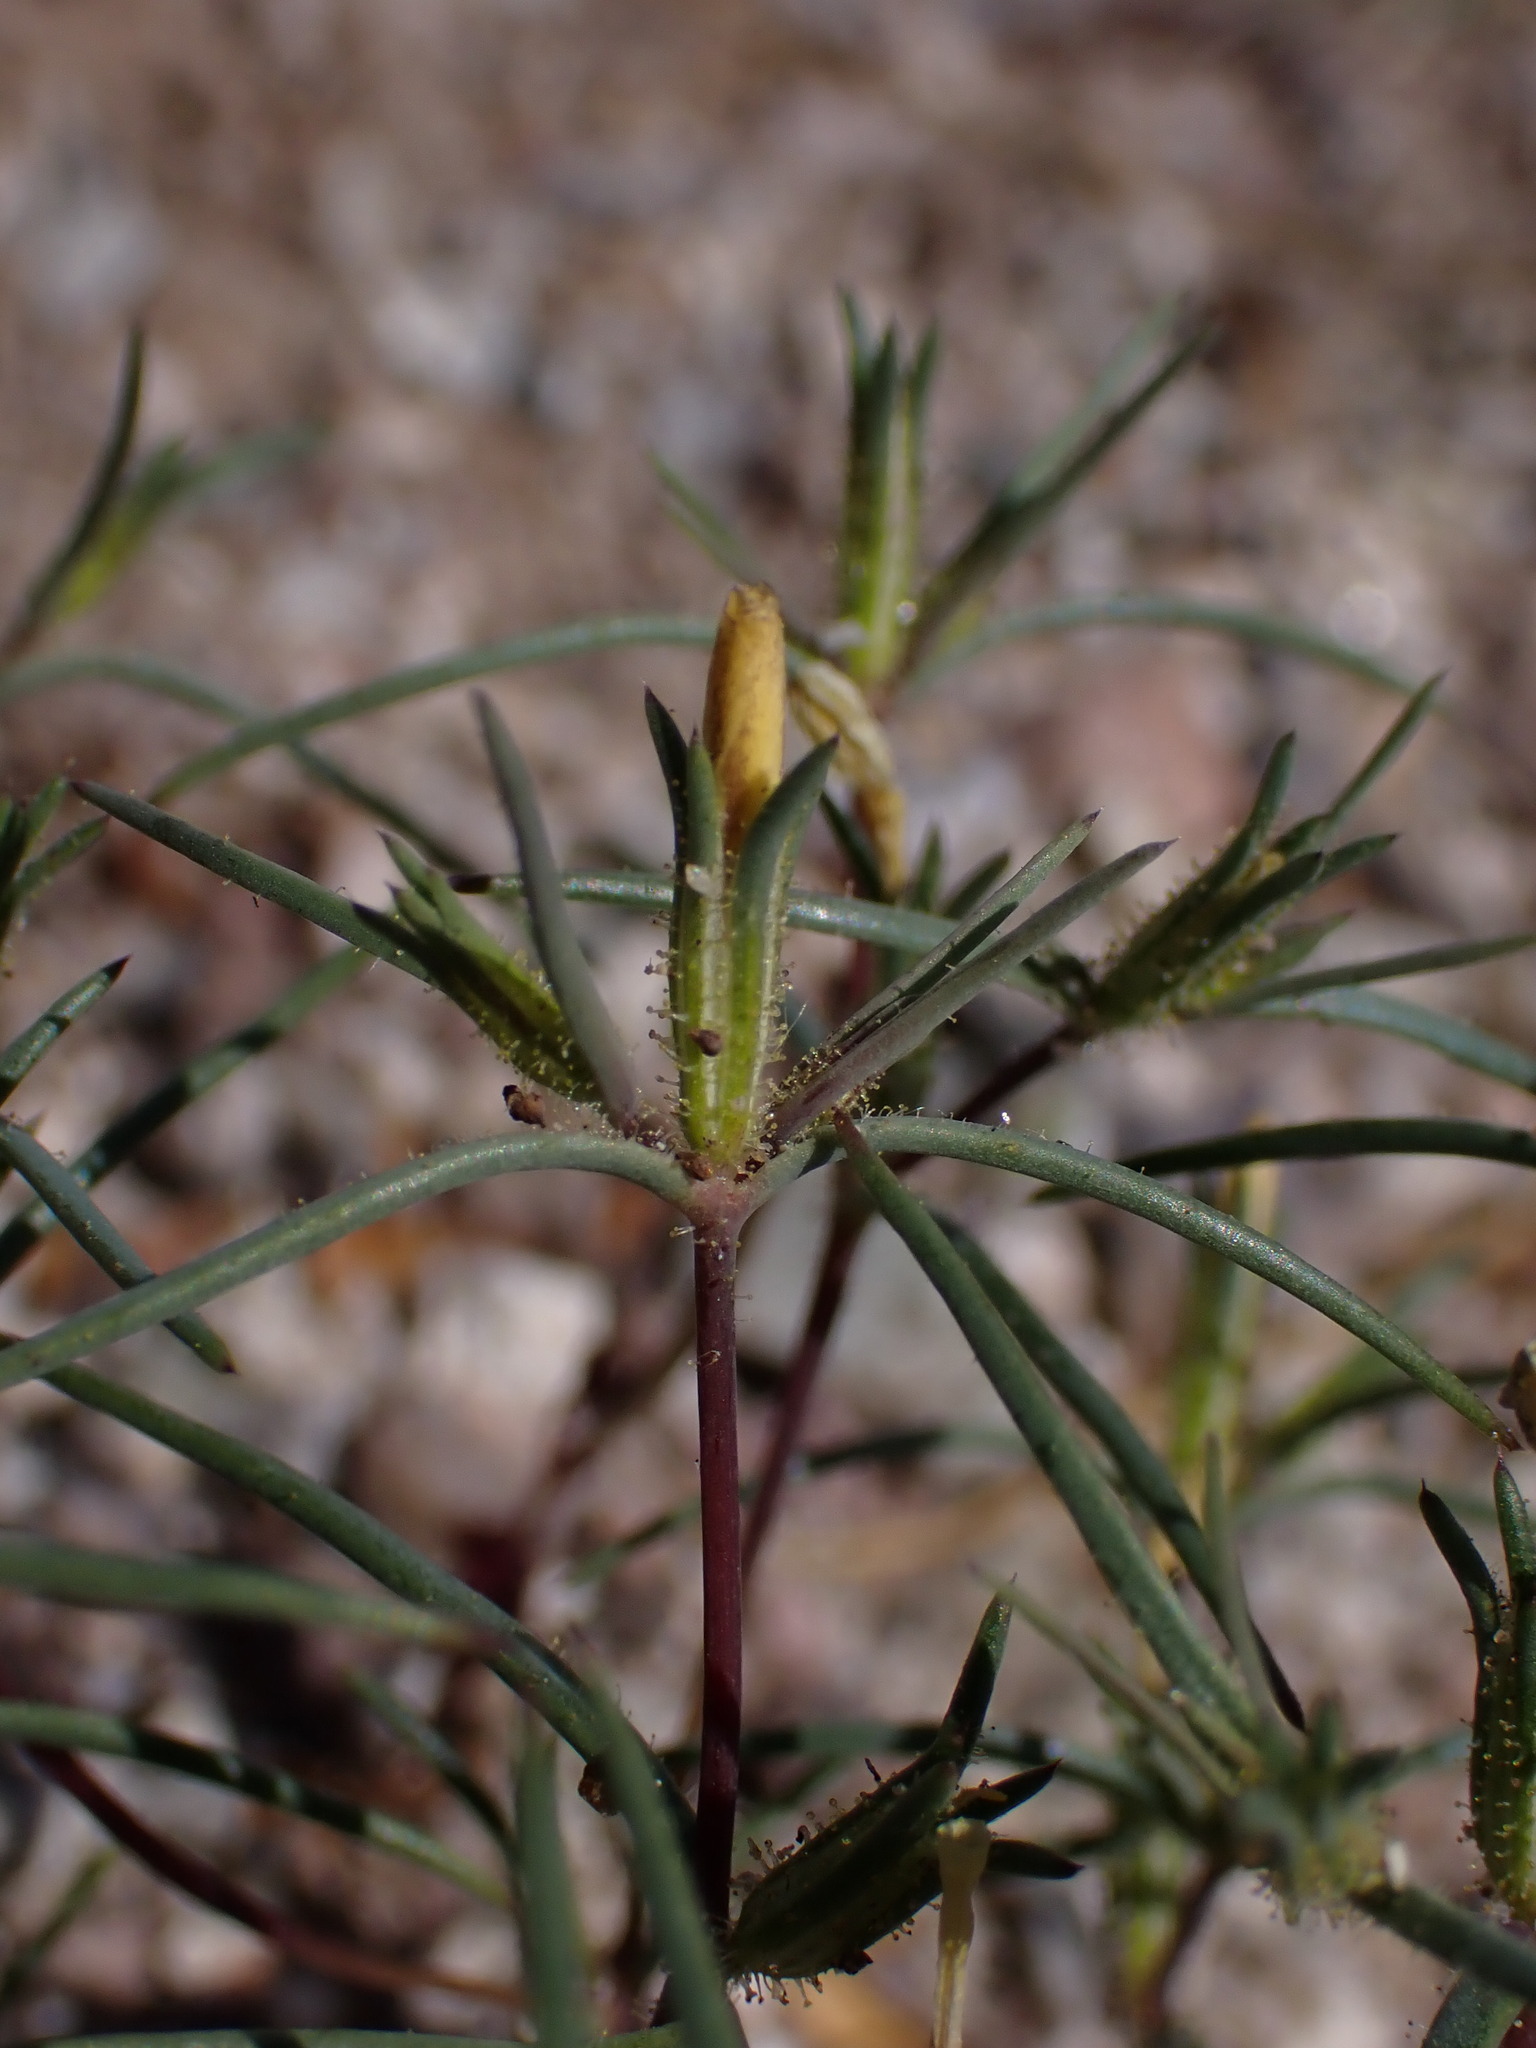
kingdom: Plantae
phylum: Tracheophyta
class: Magnoliopsida
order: Ericales
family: Polemoniaceae
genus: Linanthus
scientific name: Linanthus jonesii
